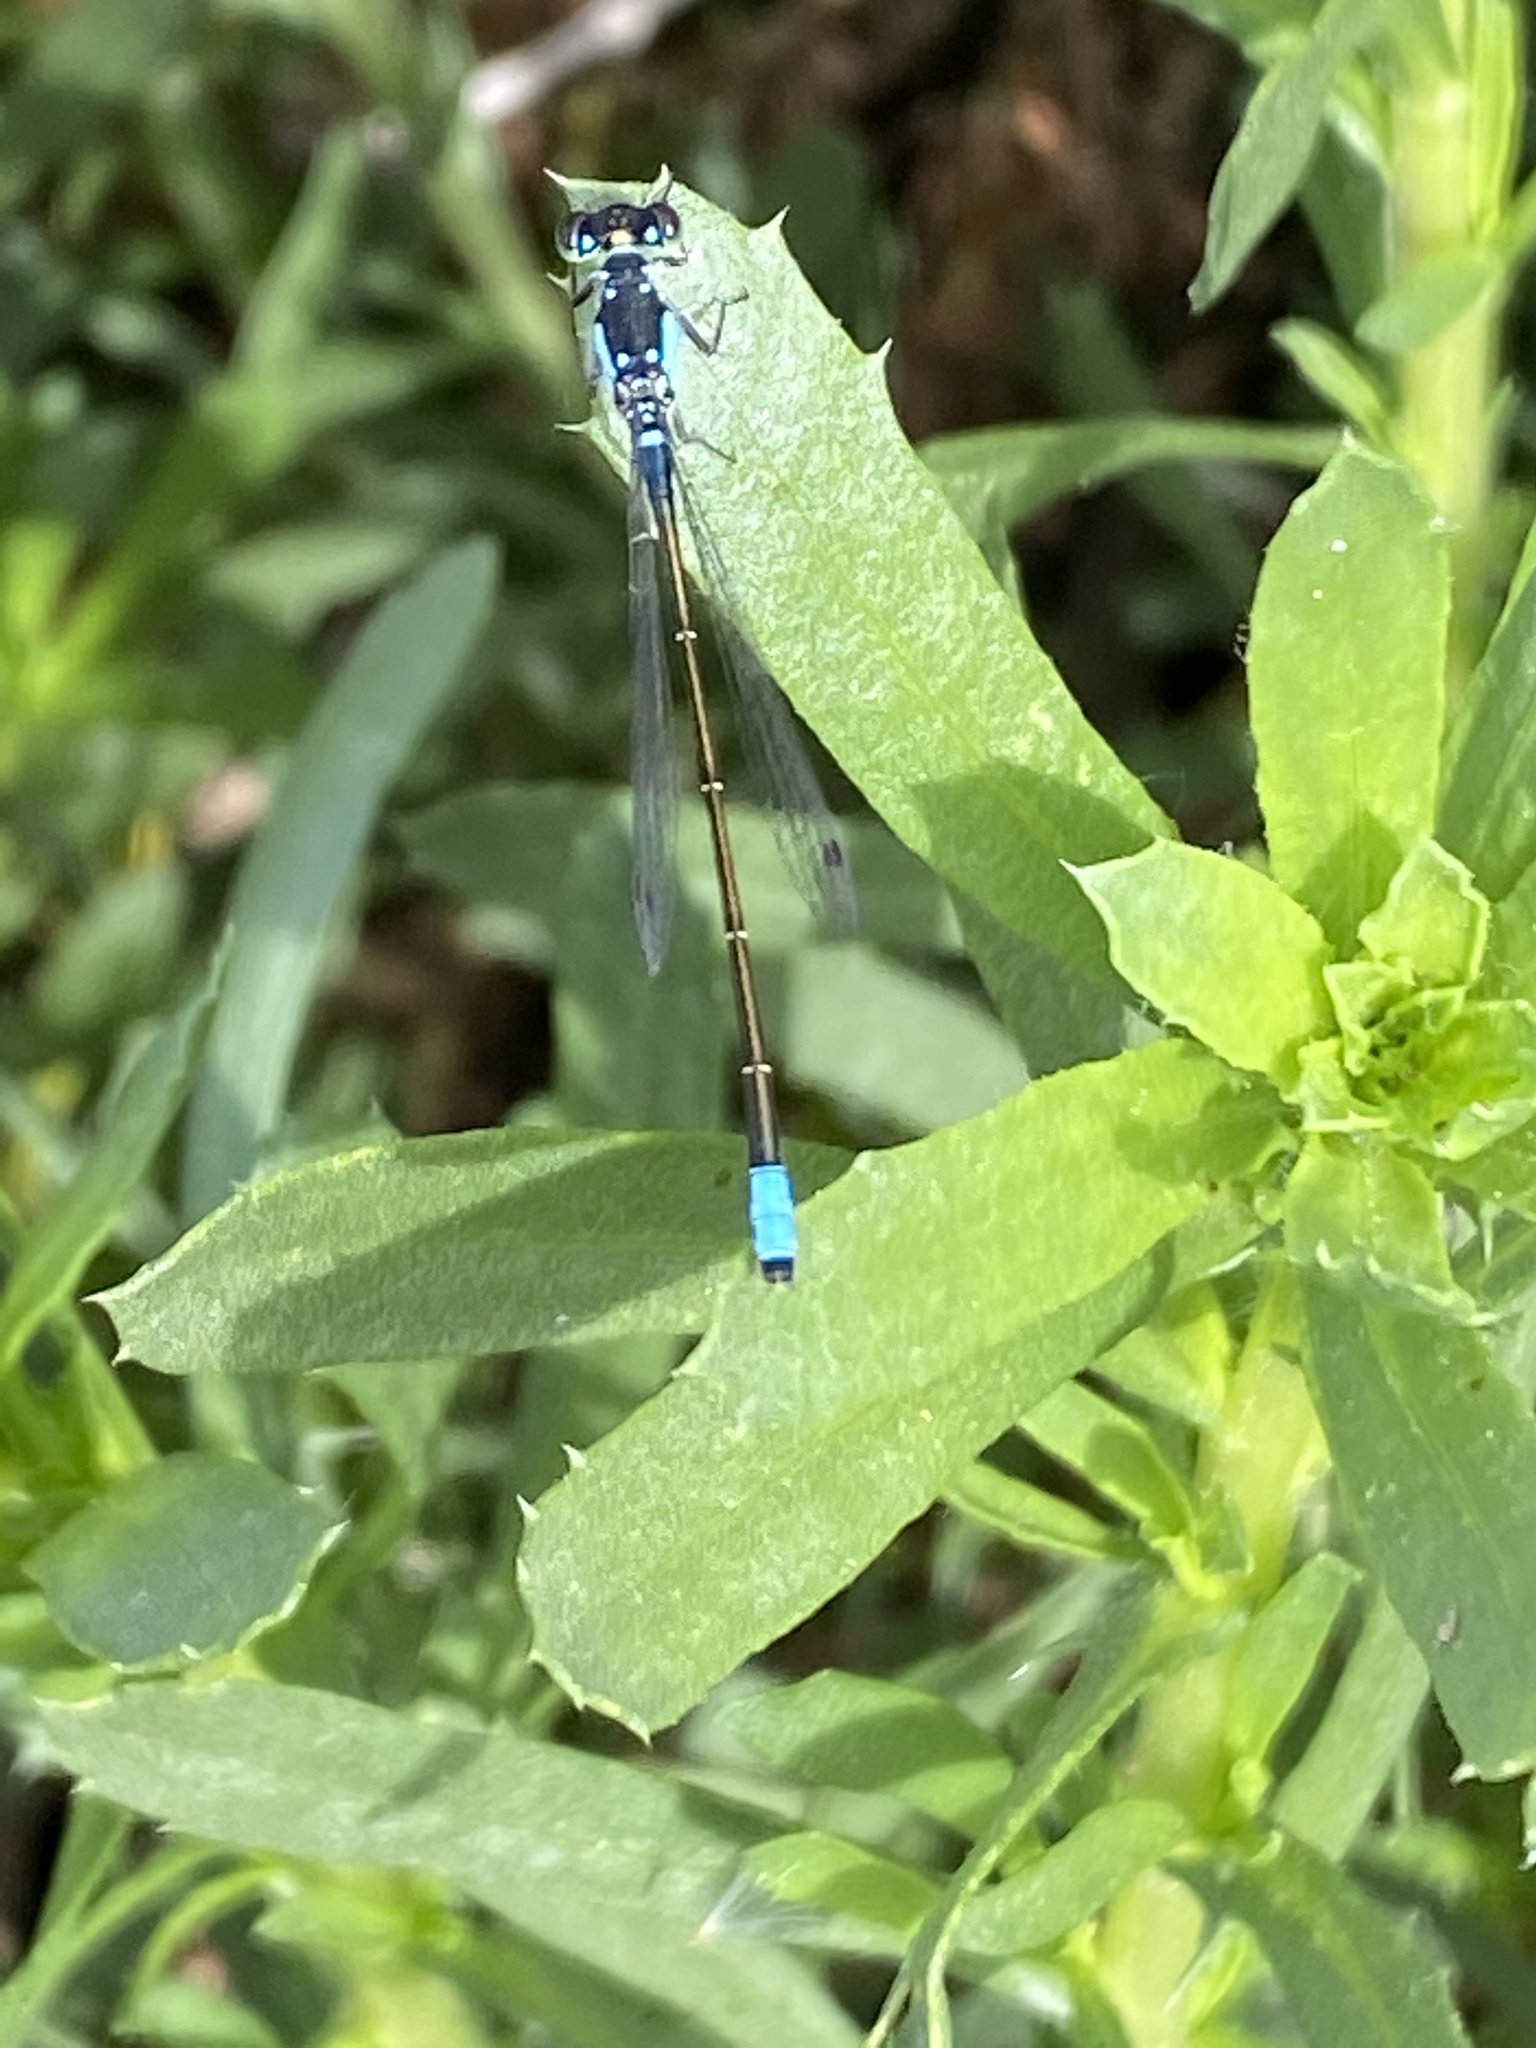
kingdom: Animalia
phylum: Arthropoda
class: Insecta
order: Odonata
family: Coenagrionidae
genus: Ischnura
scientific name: Ischnura cervula
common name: Pacific forktail
